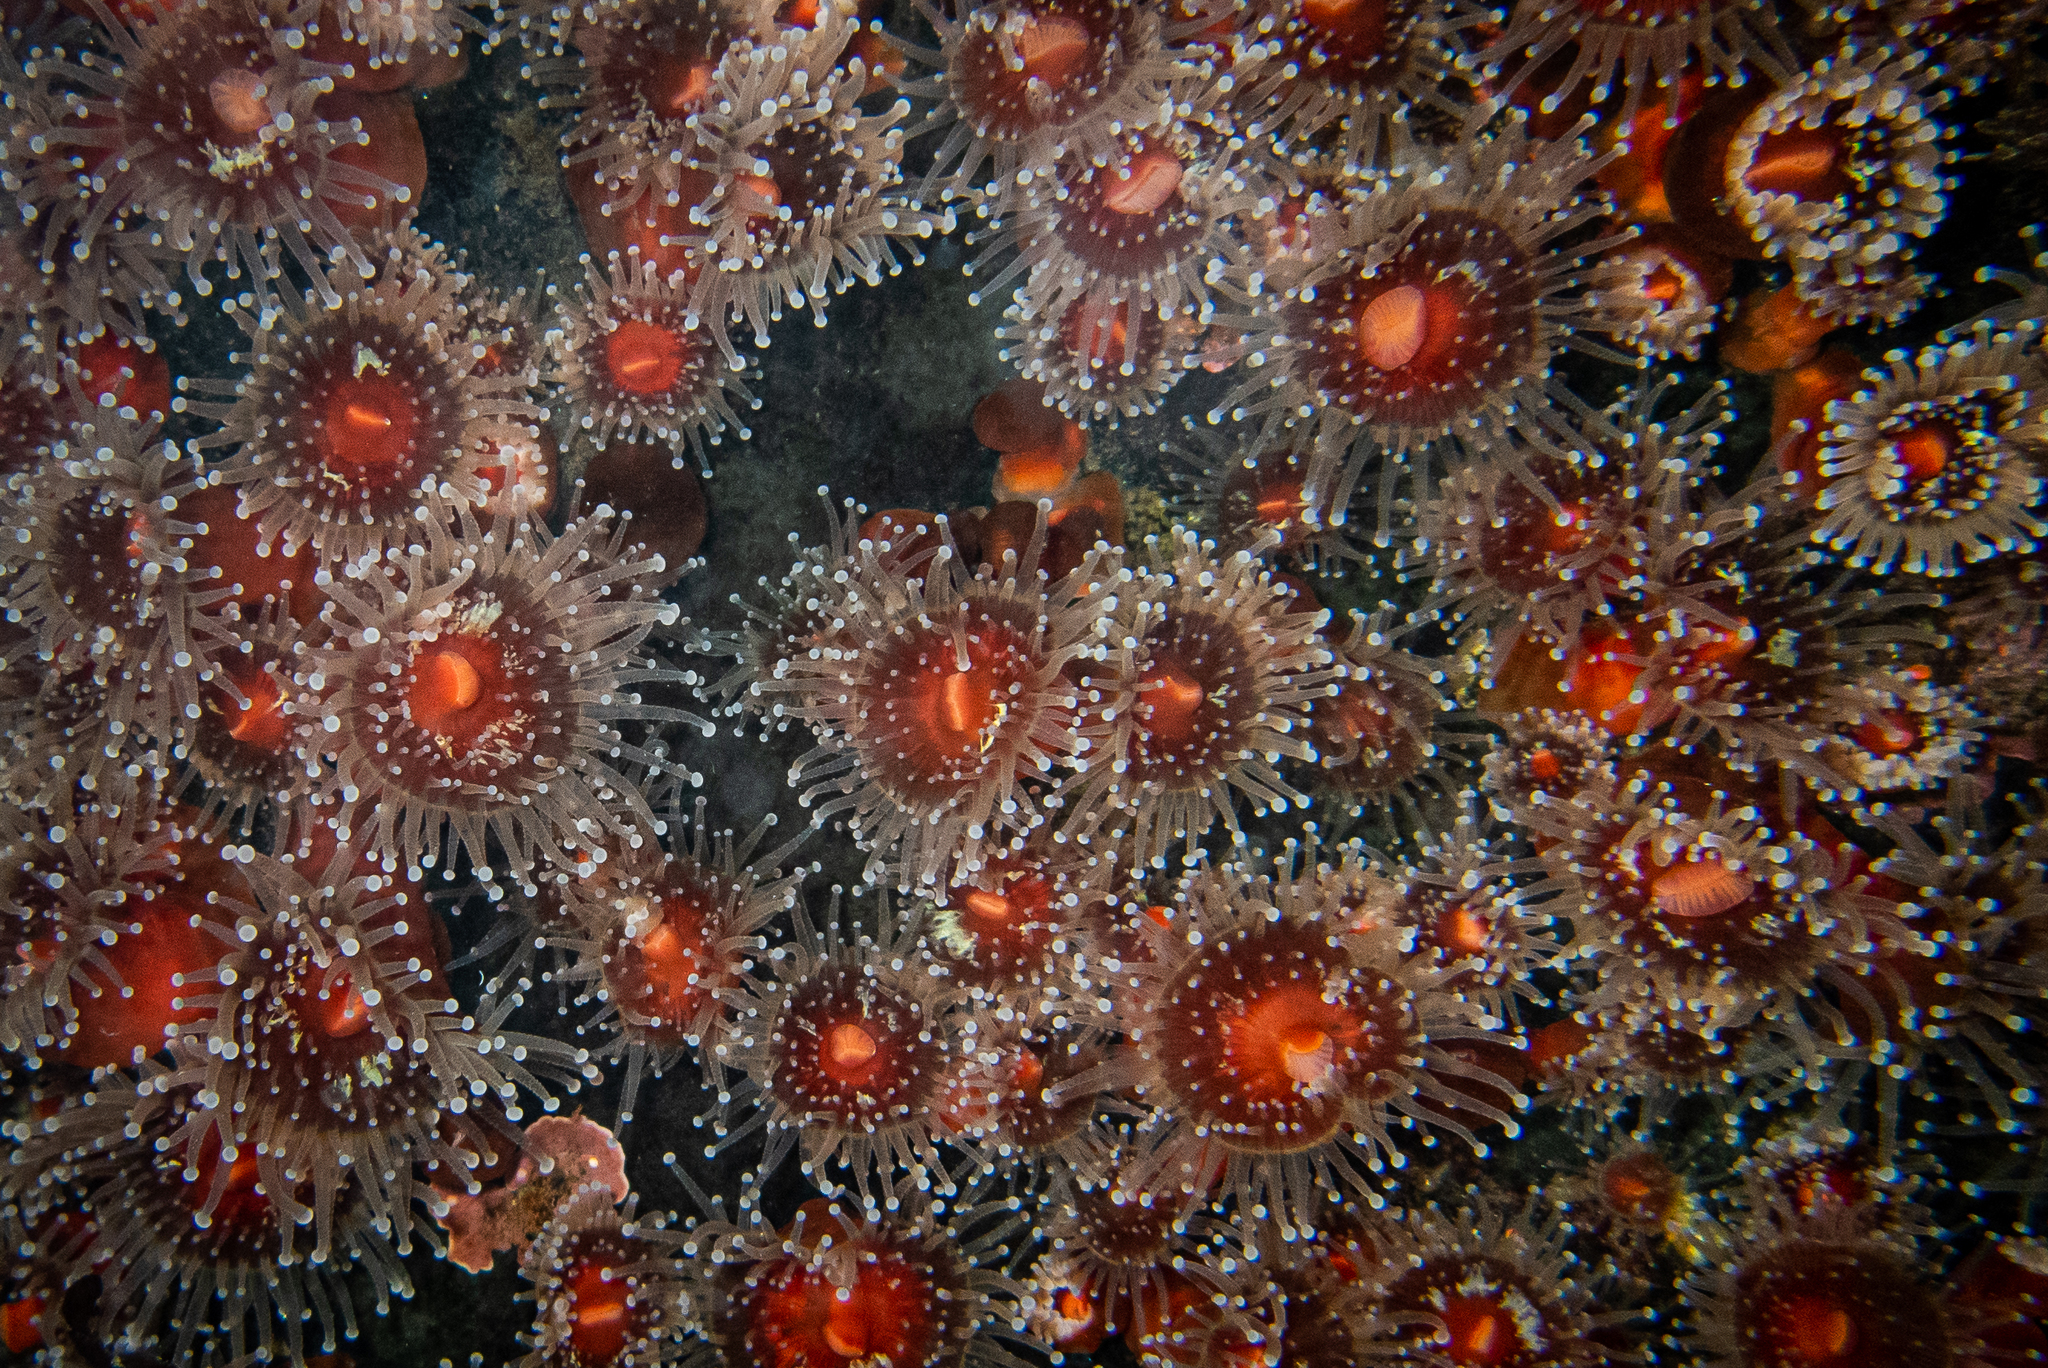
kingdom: Animalia
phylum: Cnidaria
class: Anthozoa
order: Corallimorpharia
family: Corallimorphidae
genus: Corynactis
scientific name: Corynactis californica
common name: Strawberry corallimorpharian
